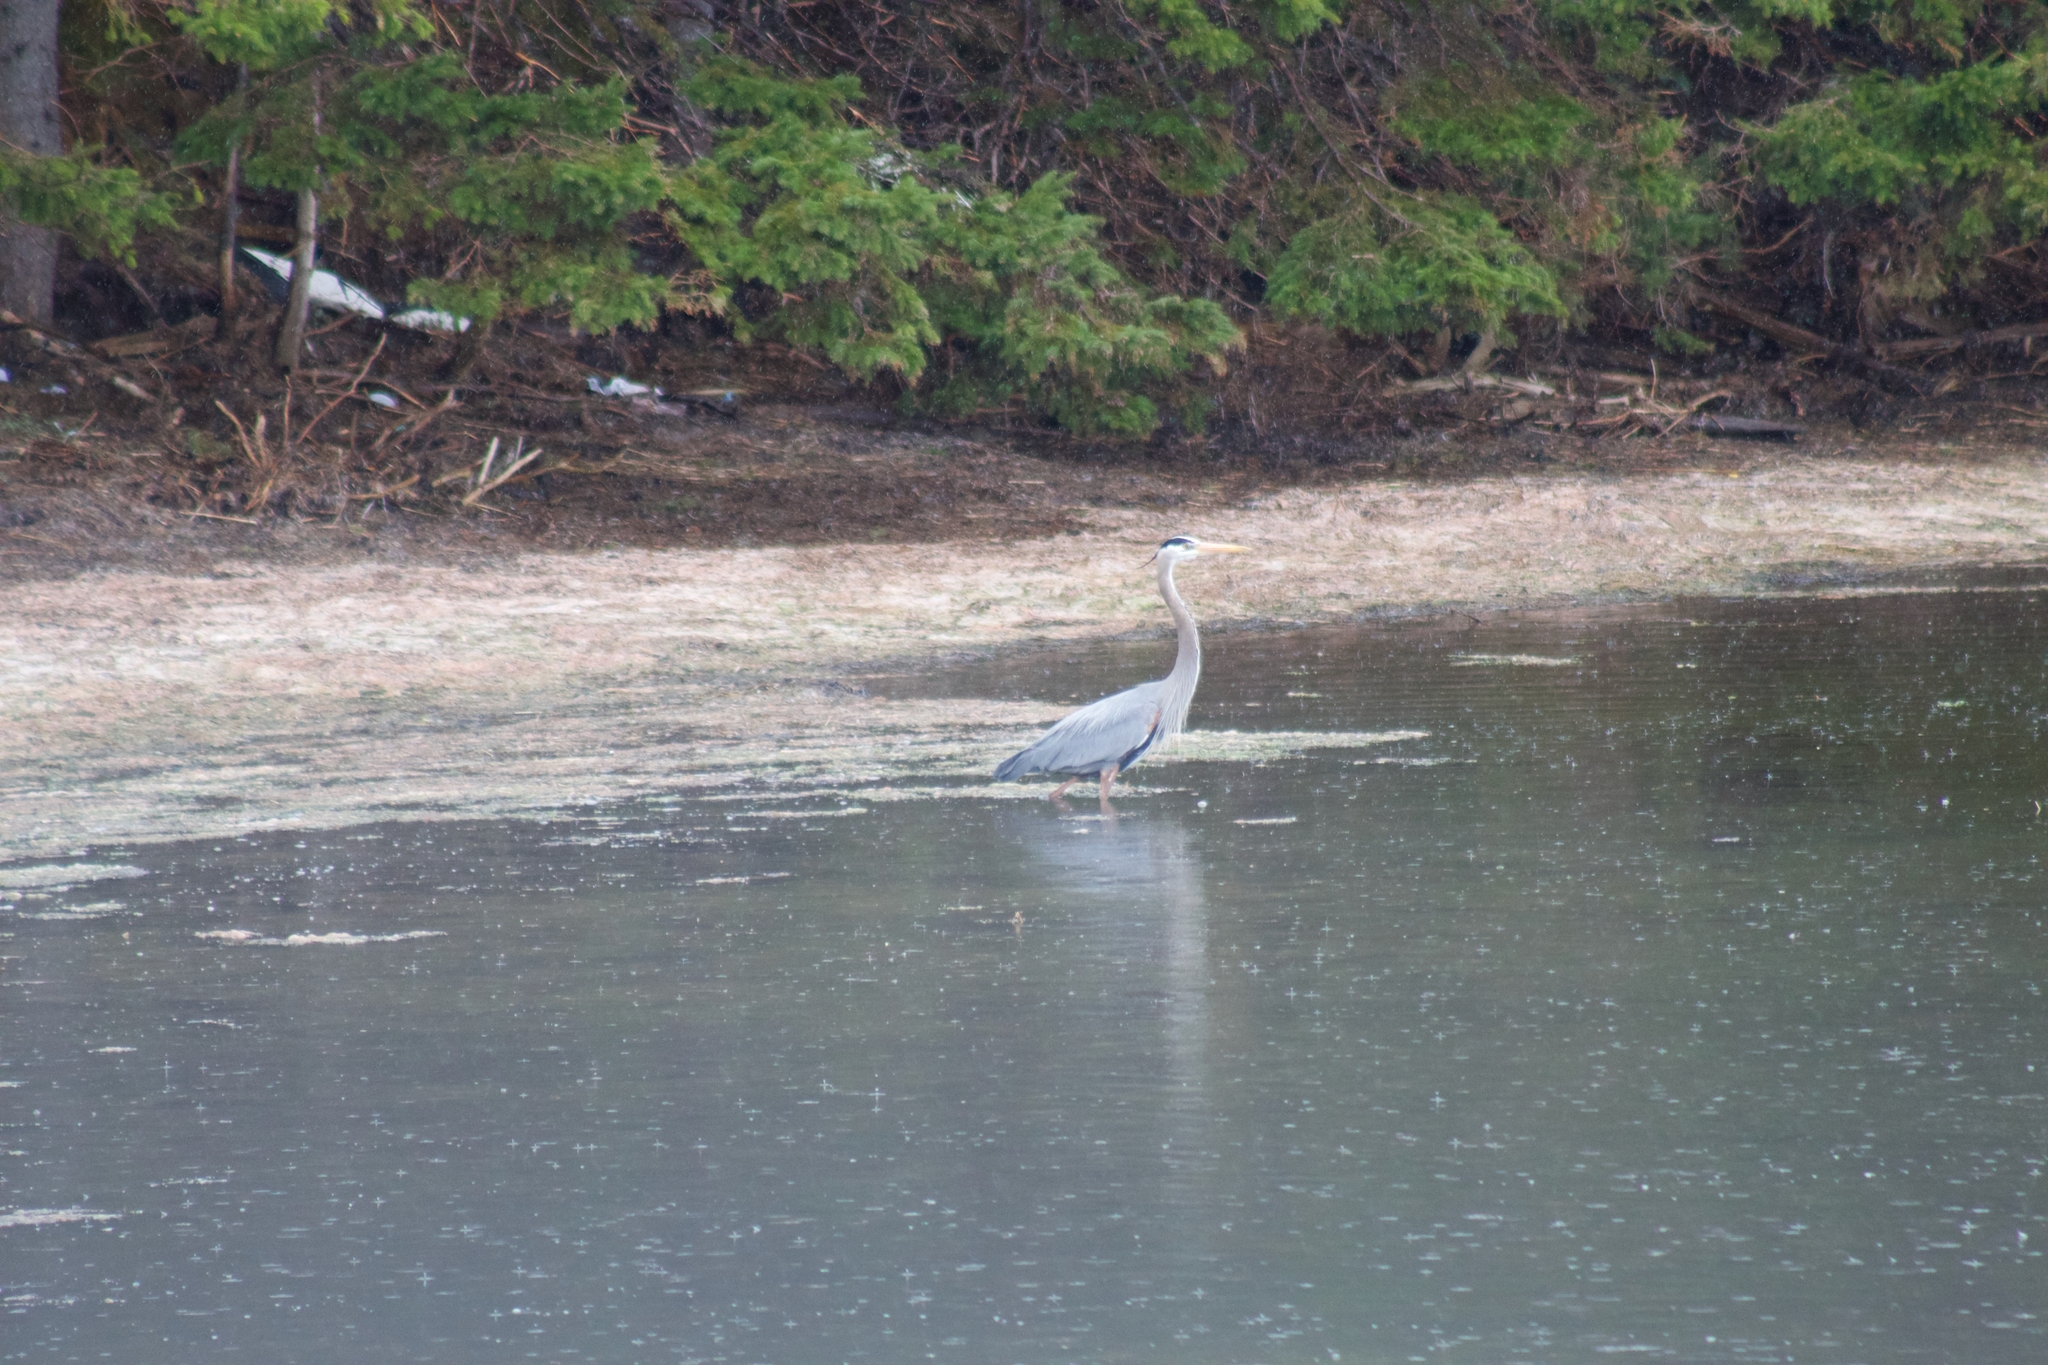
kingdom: Animalia
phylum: Chordata
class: Aves
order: Pelecaniformes
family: Ardeidae
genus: Ardea
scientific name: Ardea herodias
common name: Great blue heron
